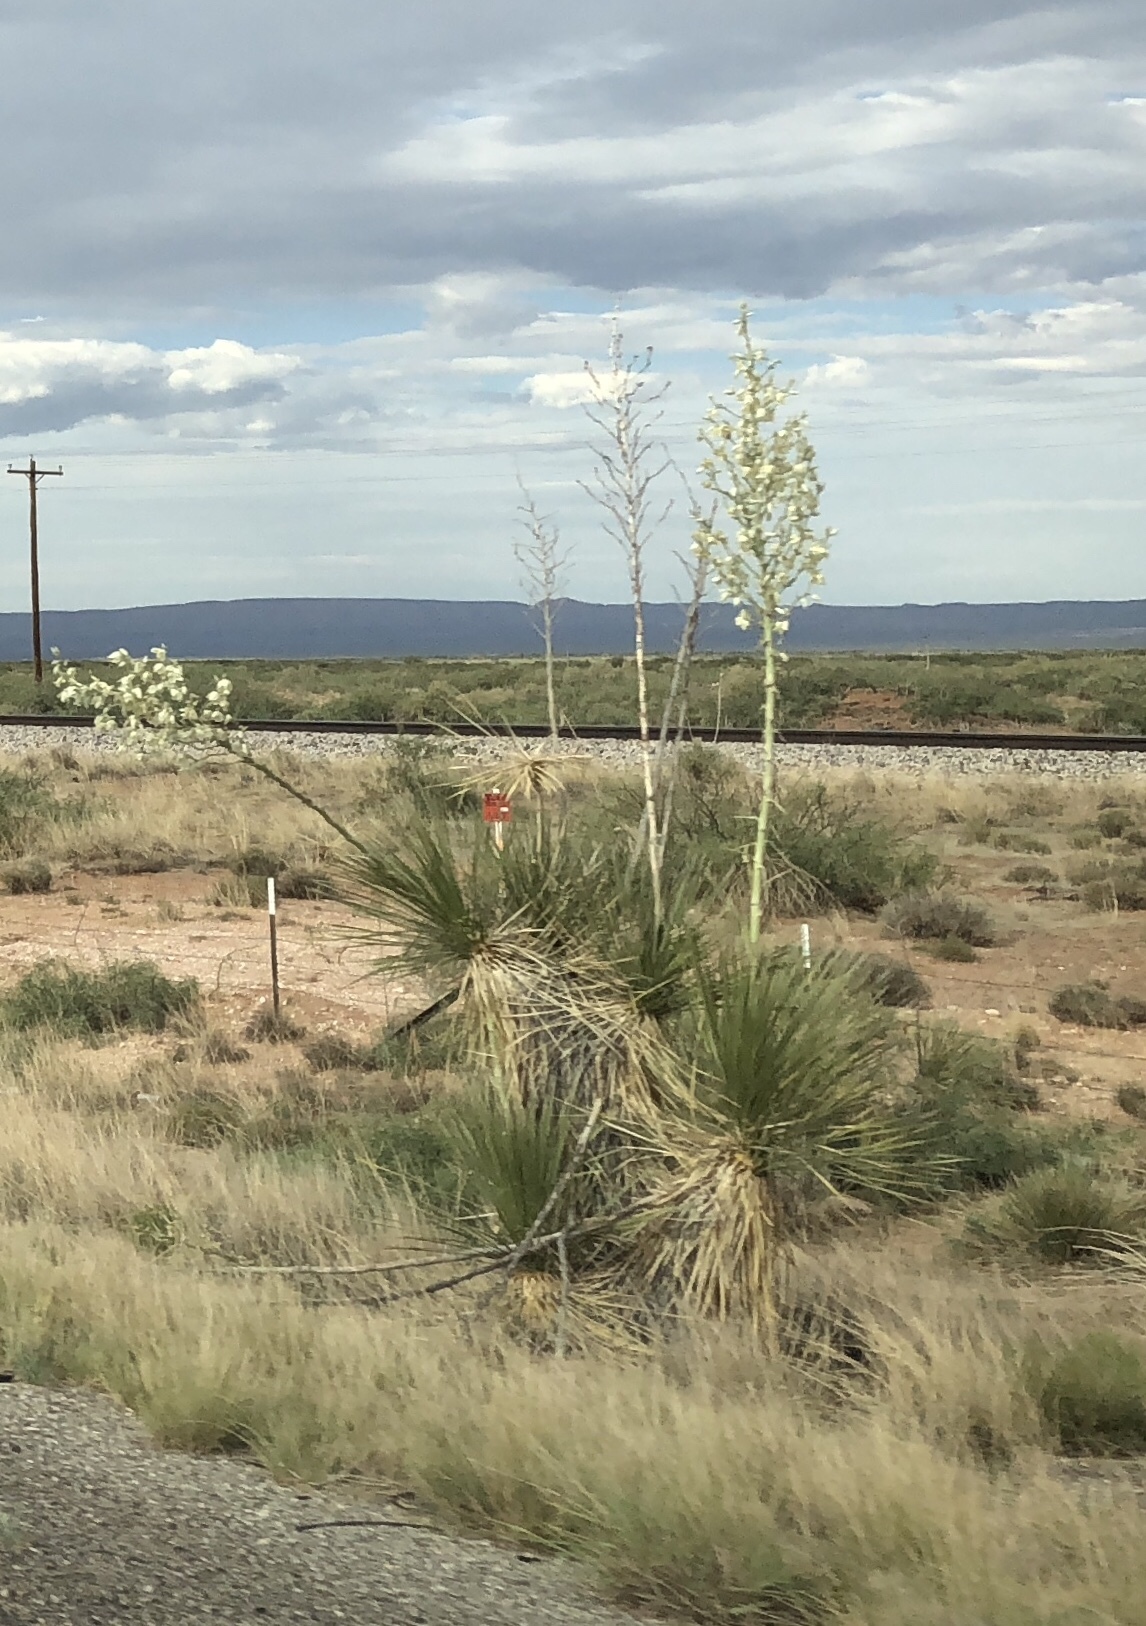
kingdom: Plantae
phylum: Tracheophyta
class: Liliopsida
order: Asparagales
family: Asparagaceae
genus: Yucca
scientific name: Yucca elata
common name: Palmella
